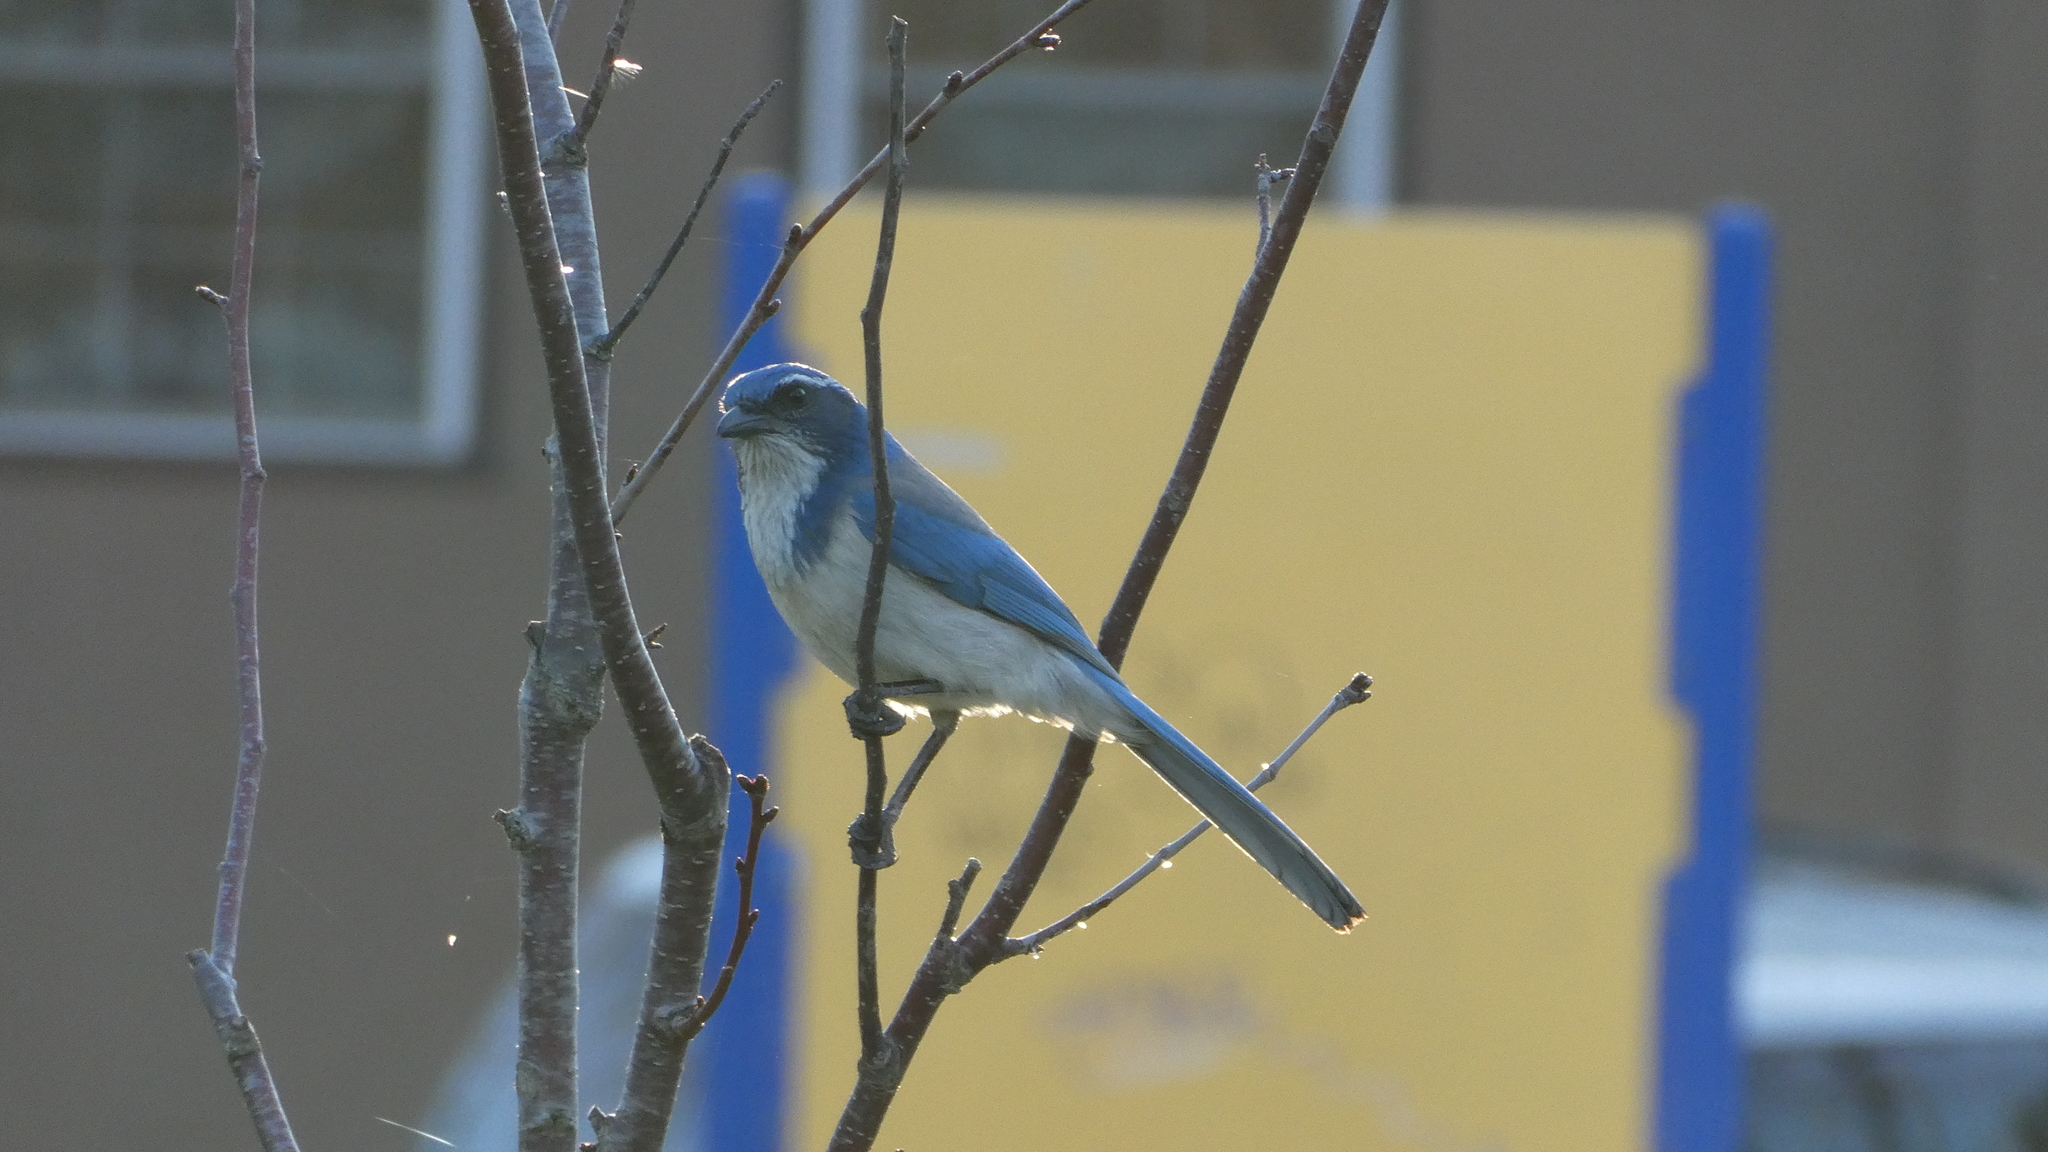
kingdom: Animalia
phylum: Chordata
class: Aves
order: Passeriformes
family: Corvidae
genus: Aphelocoma
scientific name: Aphelocoma californica
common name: California scrub-jay
